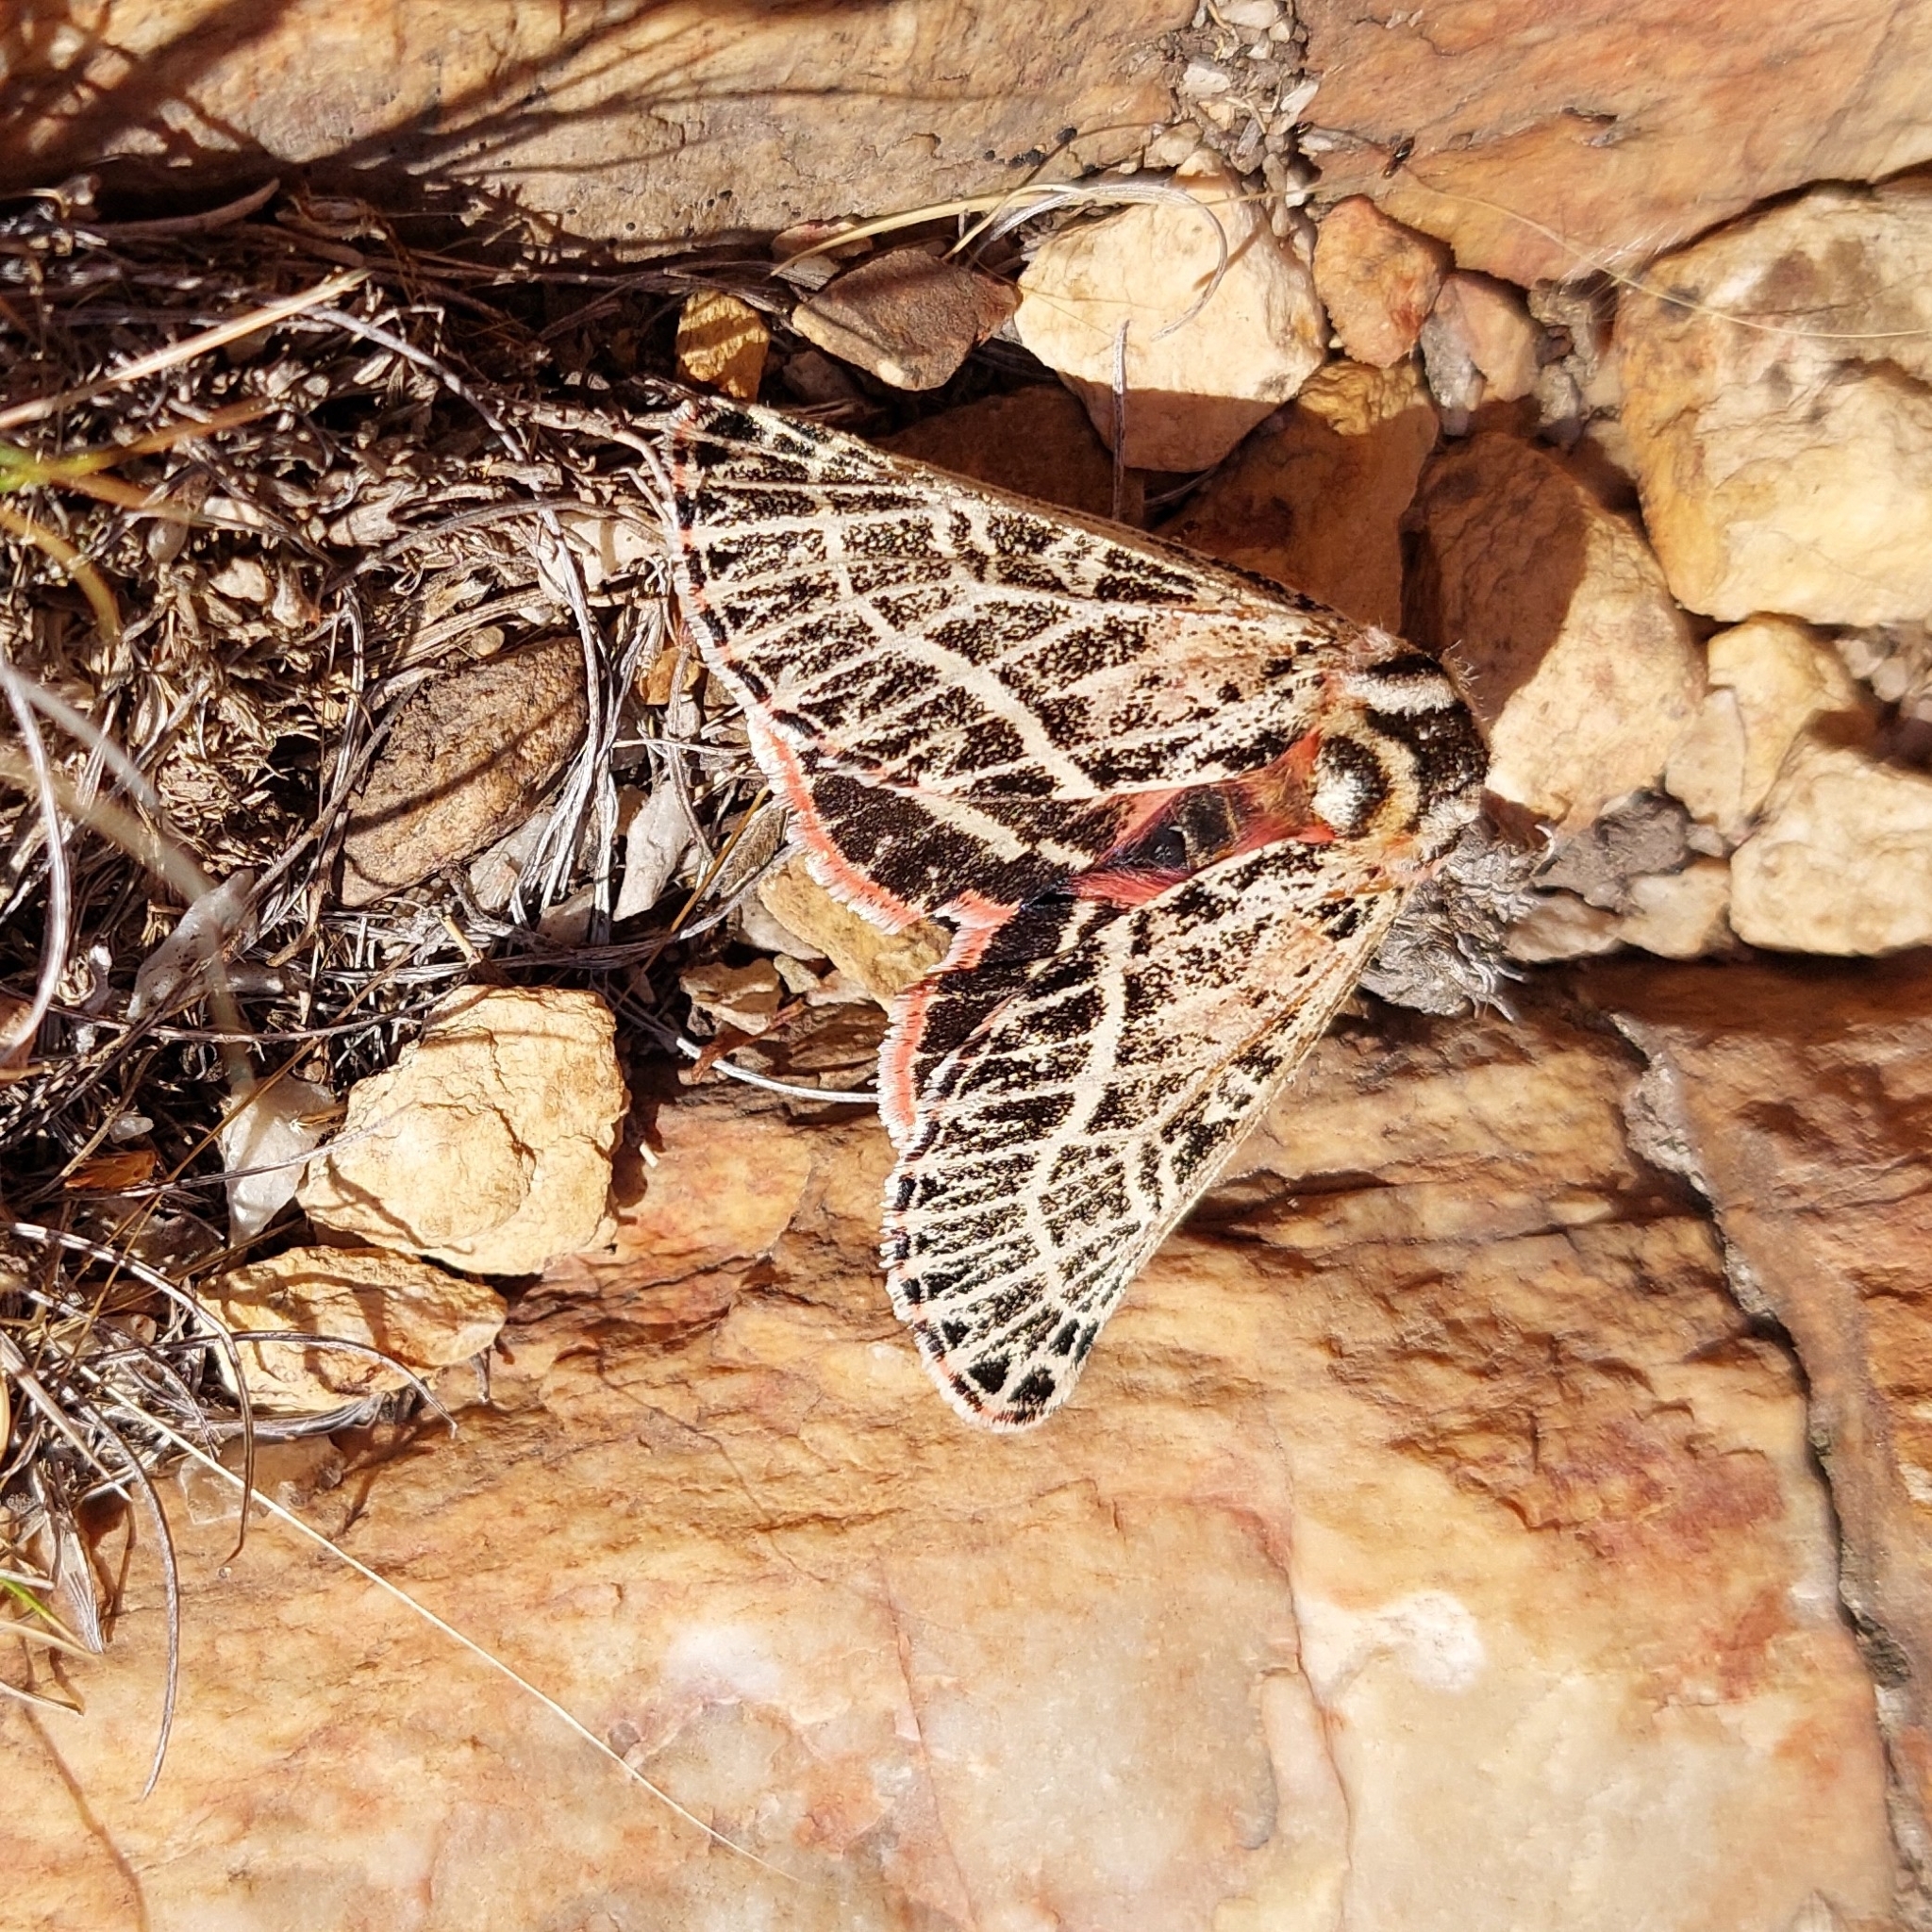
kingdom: Animalia
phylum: Arthropoda
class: Insecta
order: Lepidoptera
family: Noctuidae
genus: Chlanidophora
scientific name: Chlanidophora
